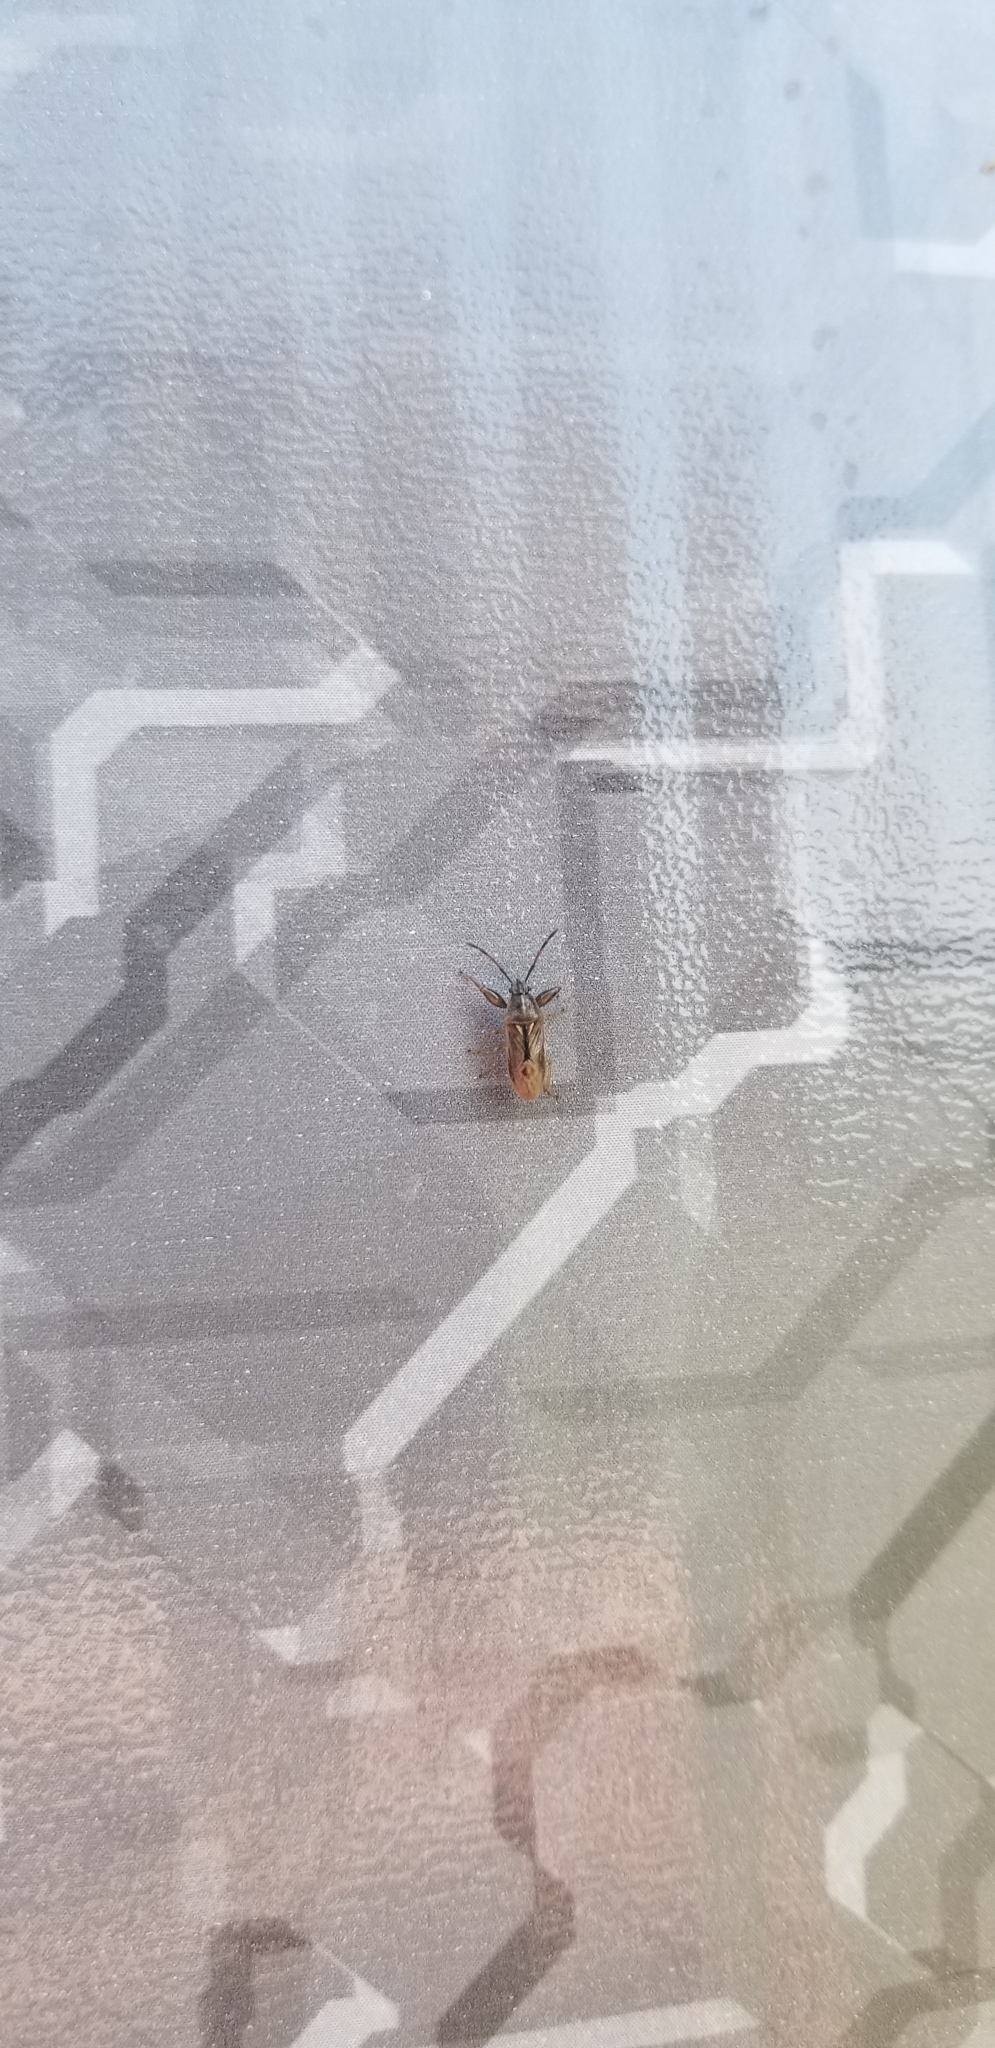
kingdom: Animalia
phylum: Arthropoda
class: Insecta
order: Hemiptera
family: Pachygronthidae
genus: Oedancala
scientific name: Oedancala dorsalis
